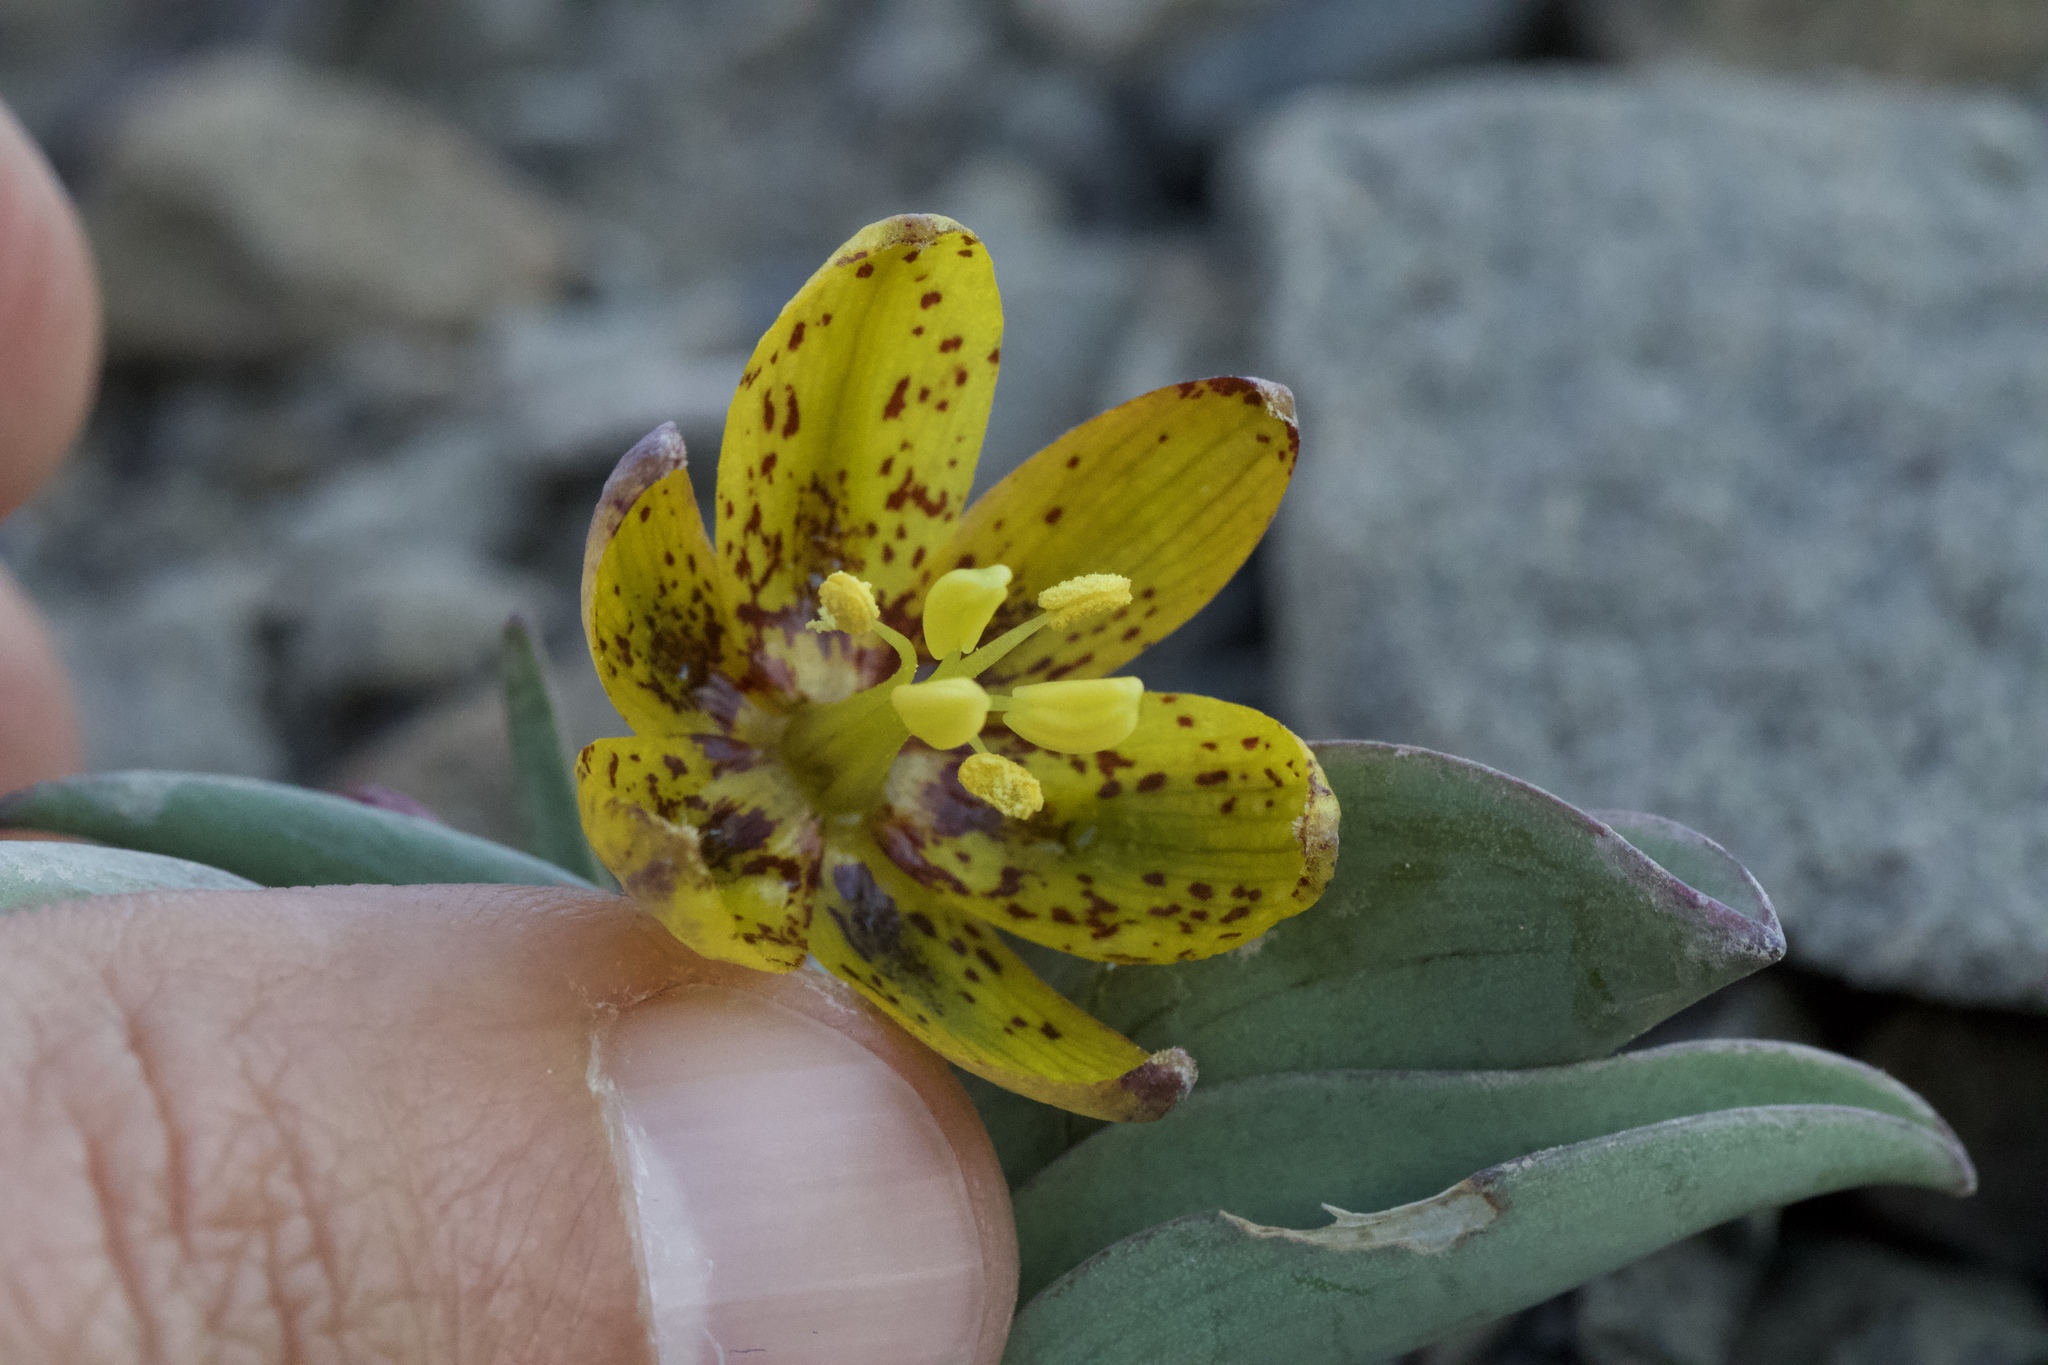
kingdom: Plantae
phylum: Tracheophyta
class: Liliopsida
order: Liliales
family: Liliaceae
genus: Fritillaria
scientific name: Fritillaria glauca
